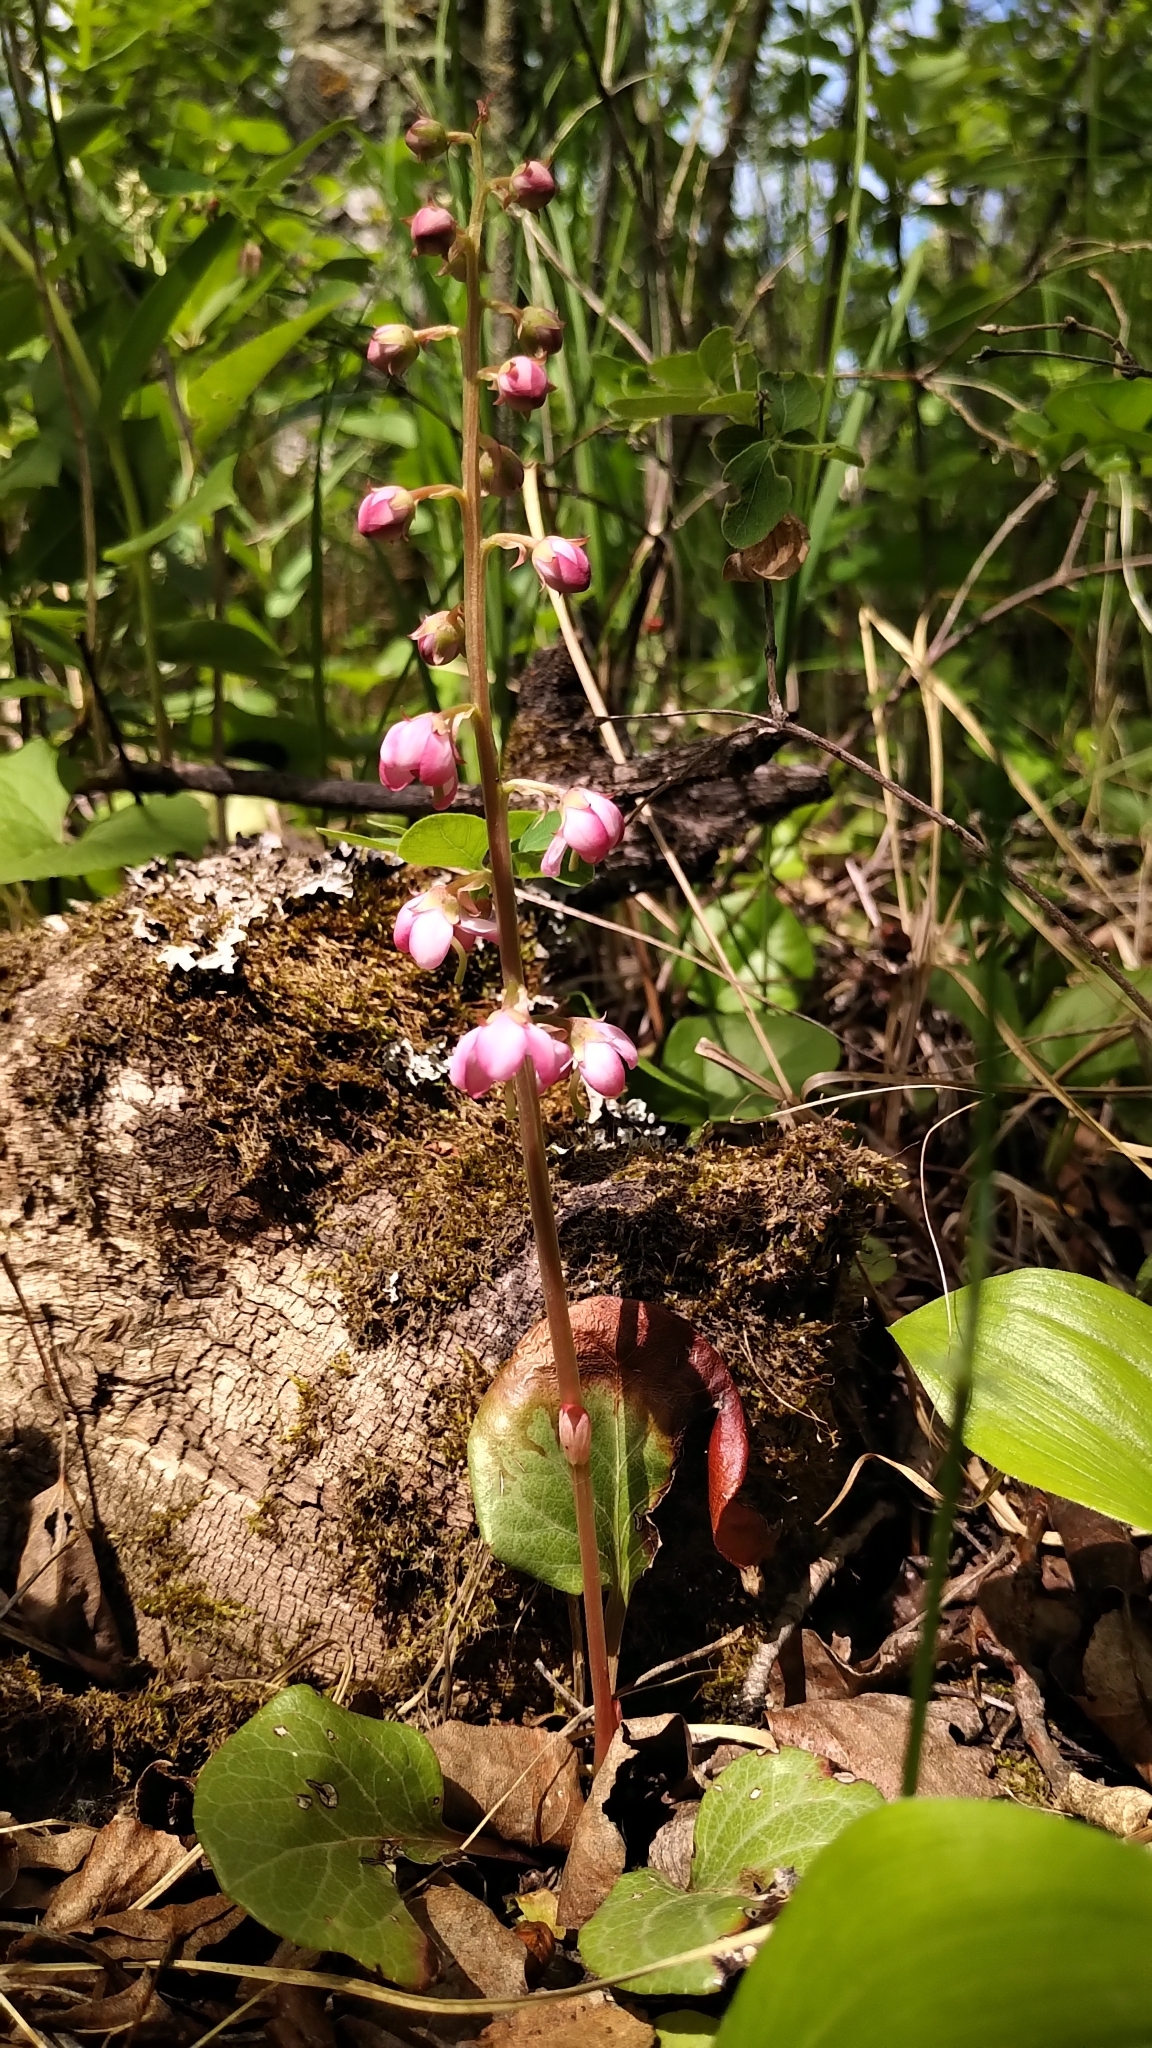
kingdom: Plantae
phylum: Tracheophyta
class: Magnoliopsida
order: Ericales
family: Ericaceae
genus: Pyrola
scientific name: Pyrola asarifolia
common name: Bog wintergreen
